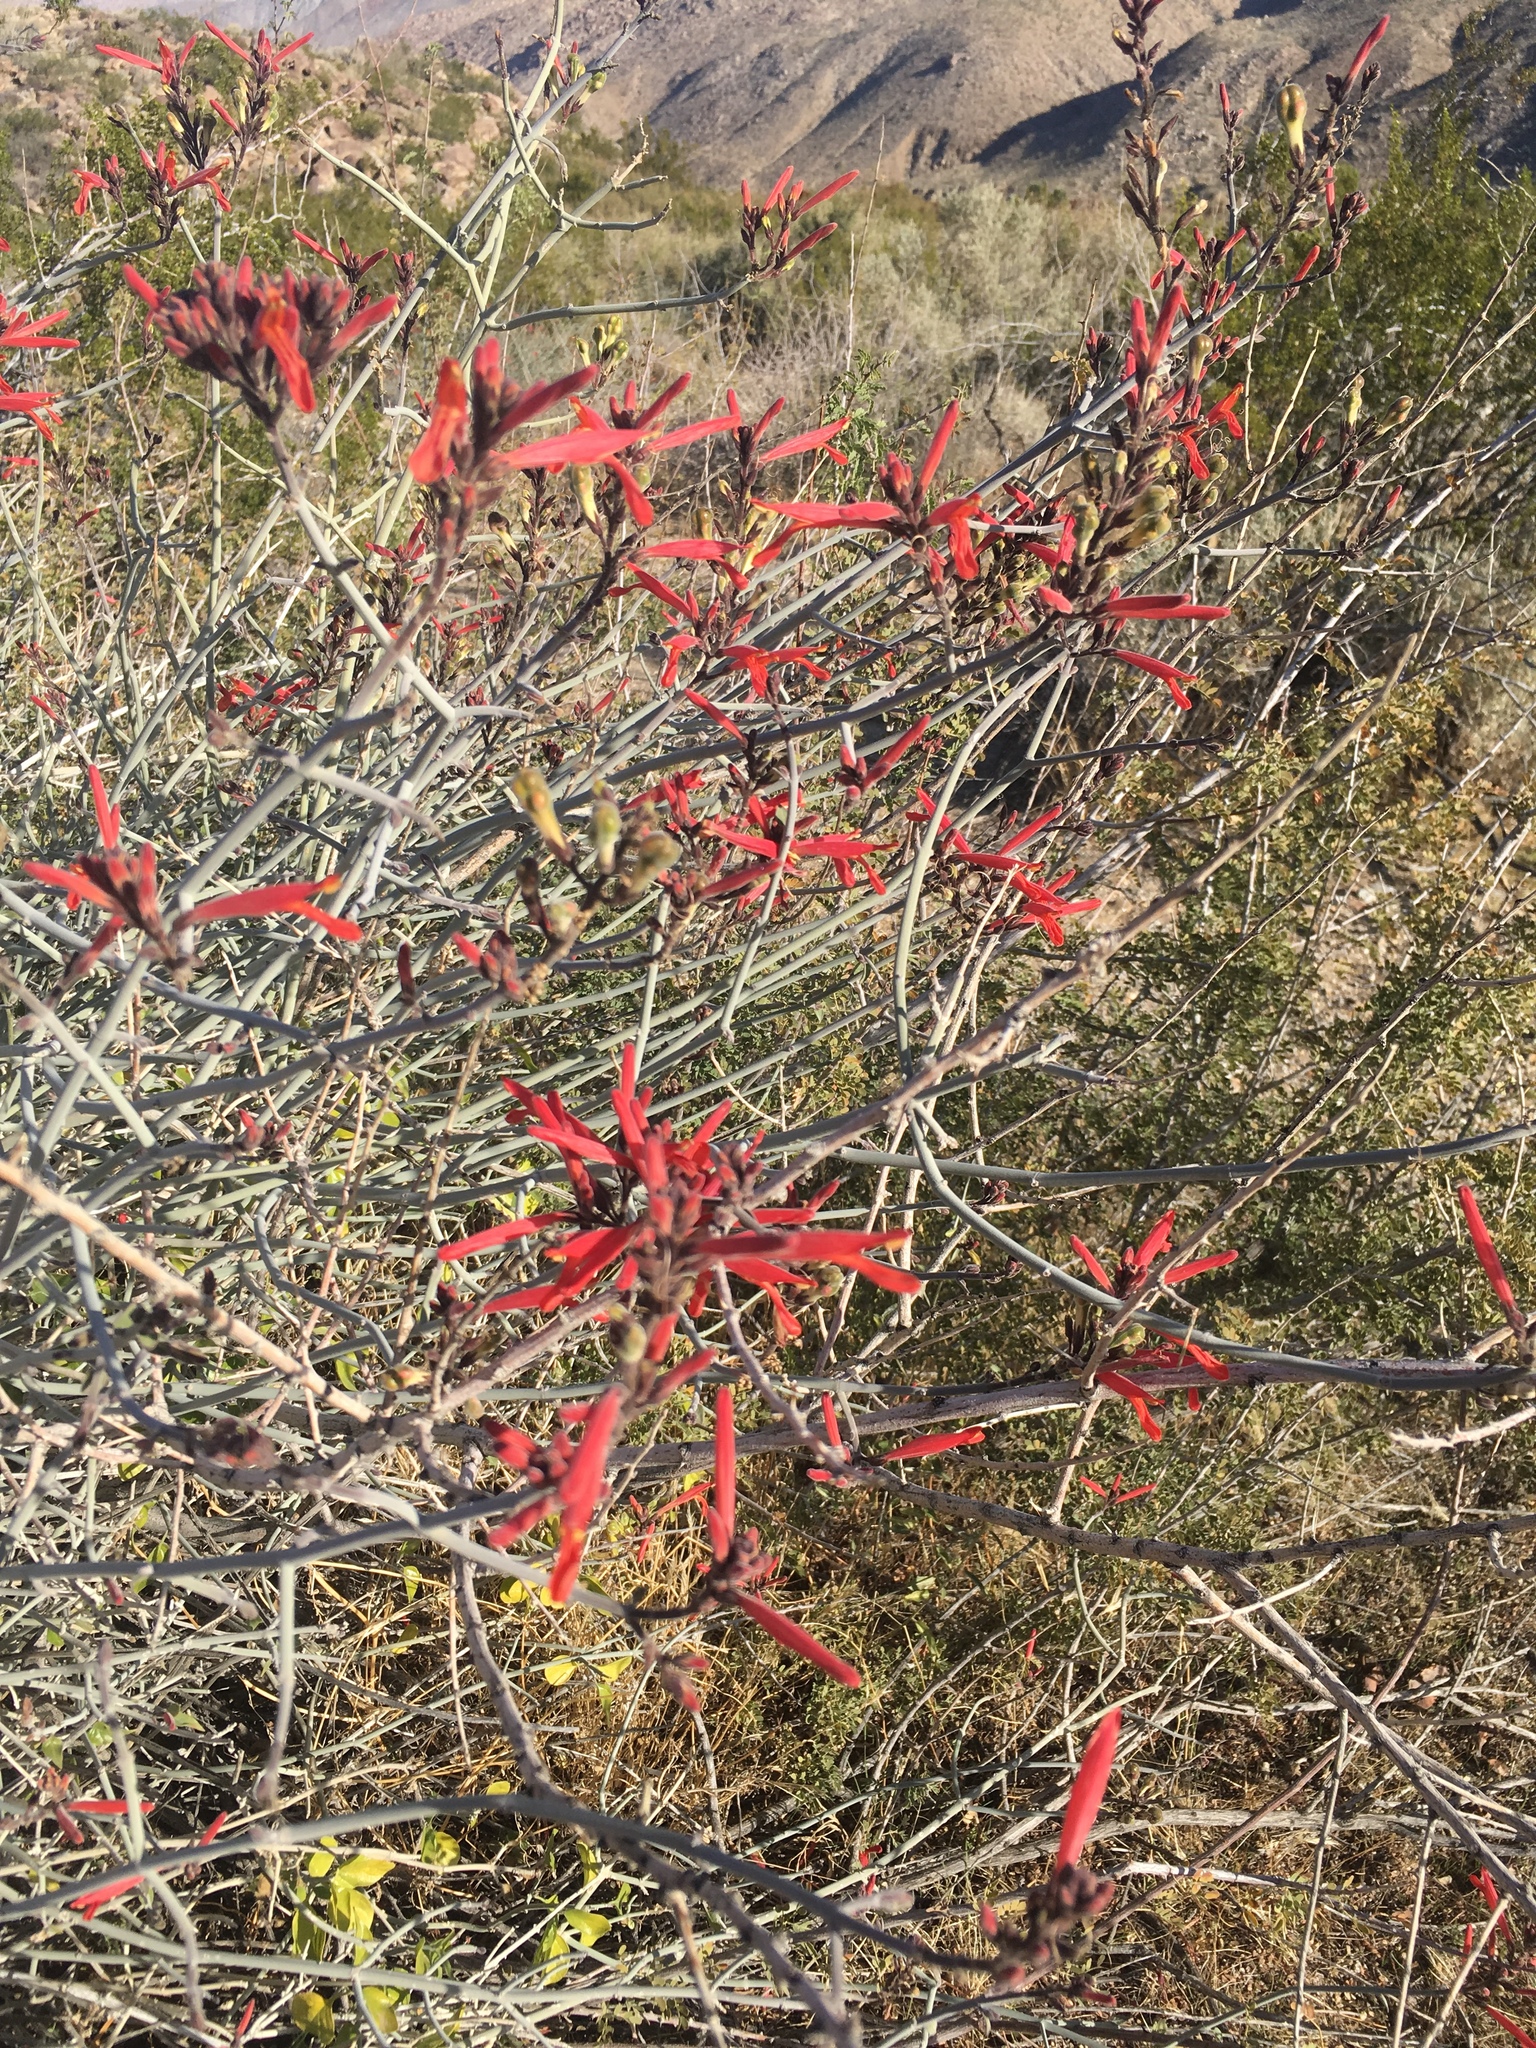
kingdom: Plantae
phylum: Tracheophyta
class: Magnoliopsida
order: Lamiales
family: Acanthaceae
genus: Justicia
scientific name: Justicia californica
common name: Chuparosa-honeysuckle
